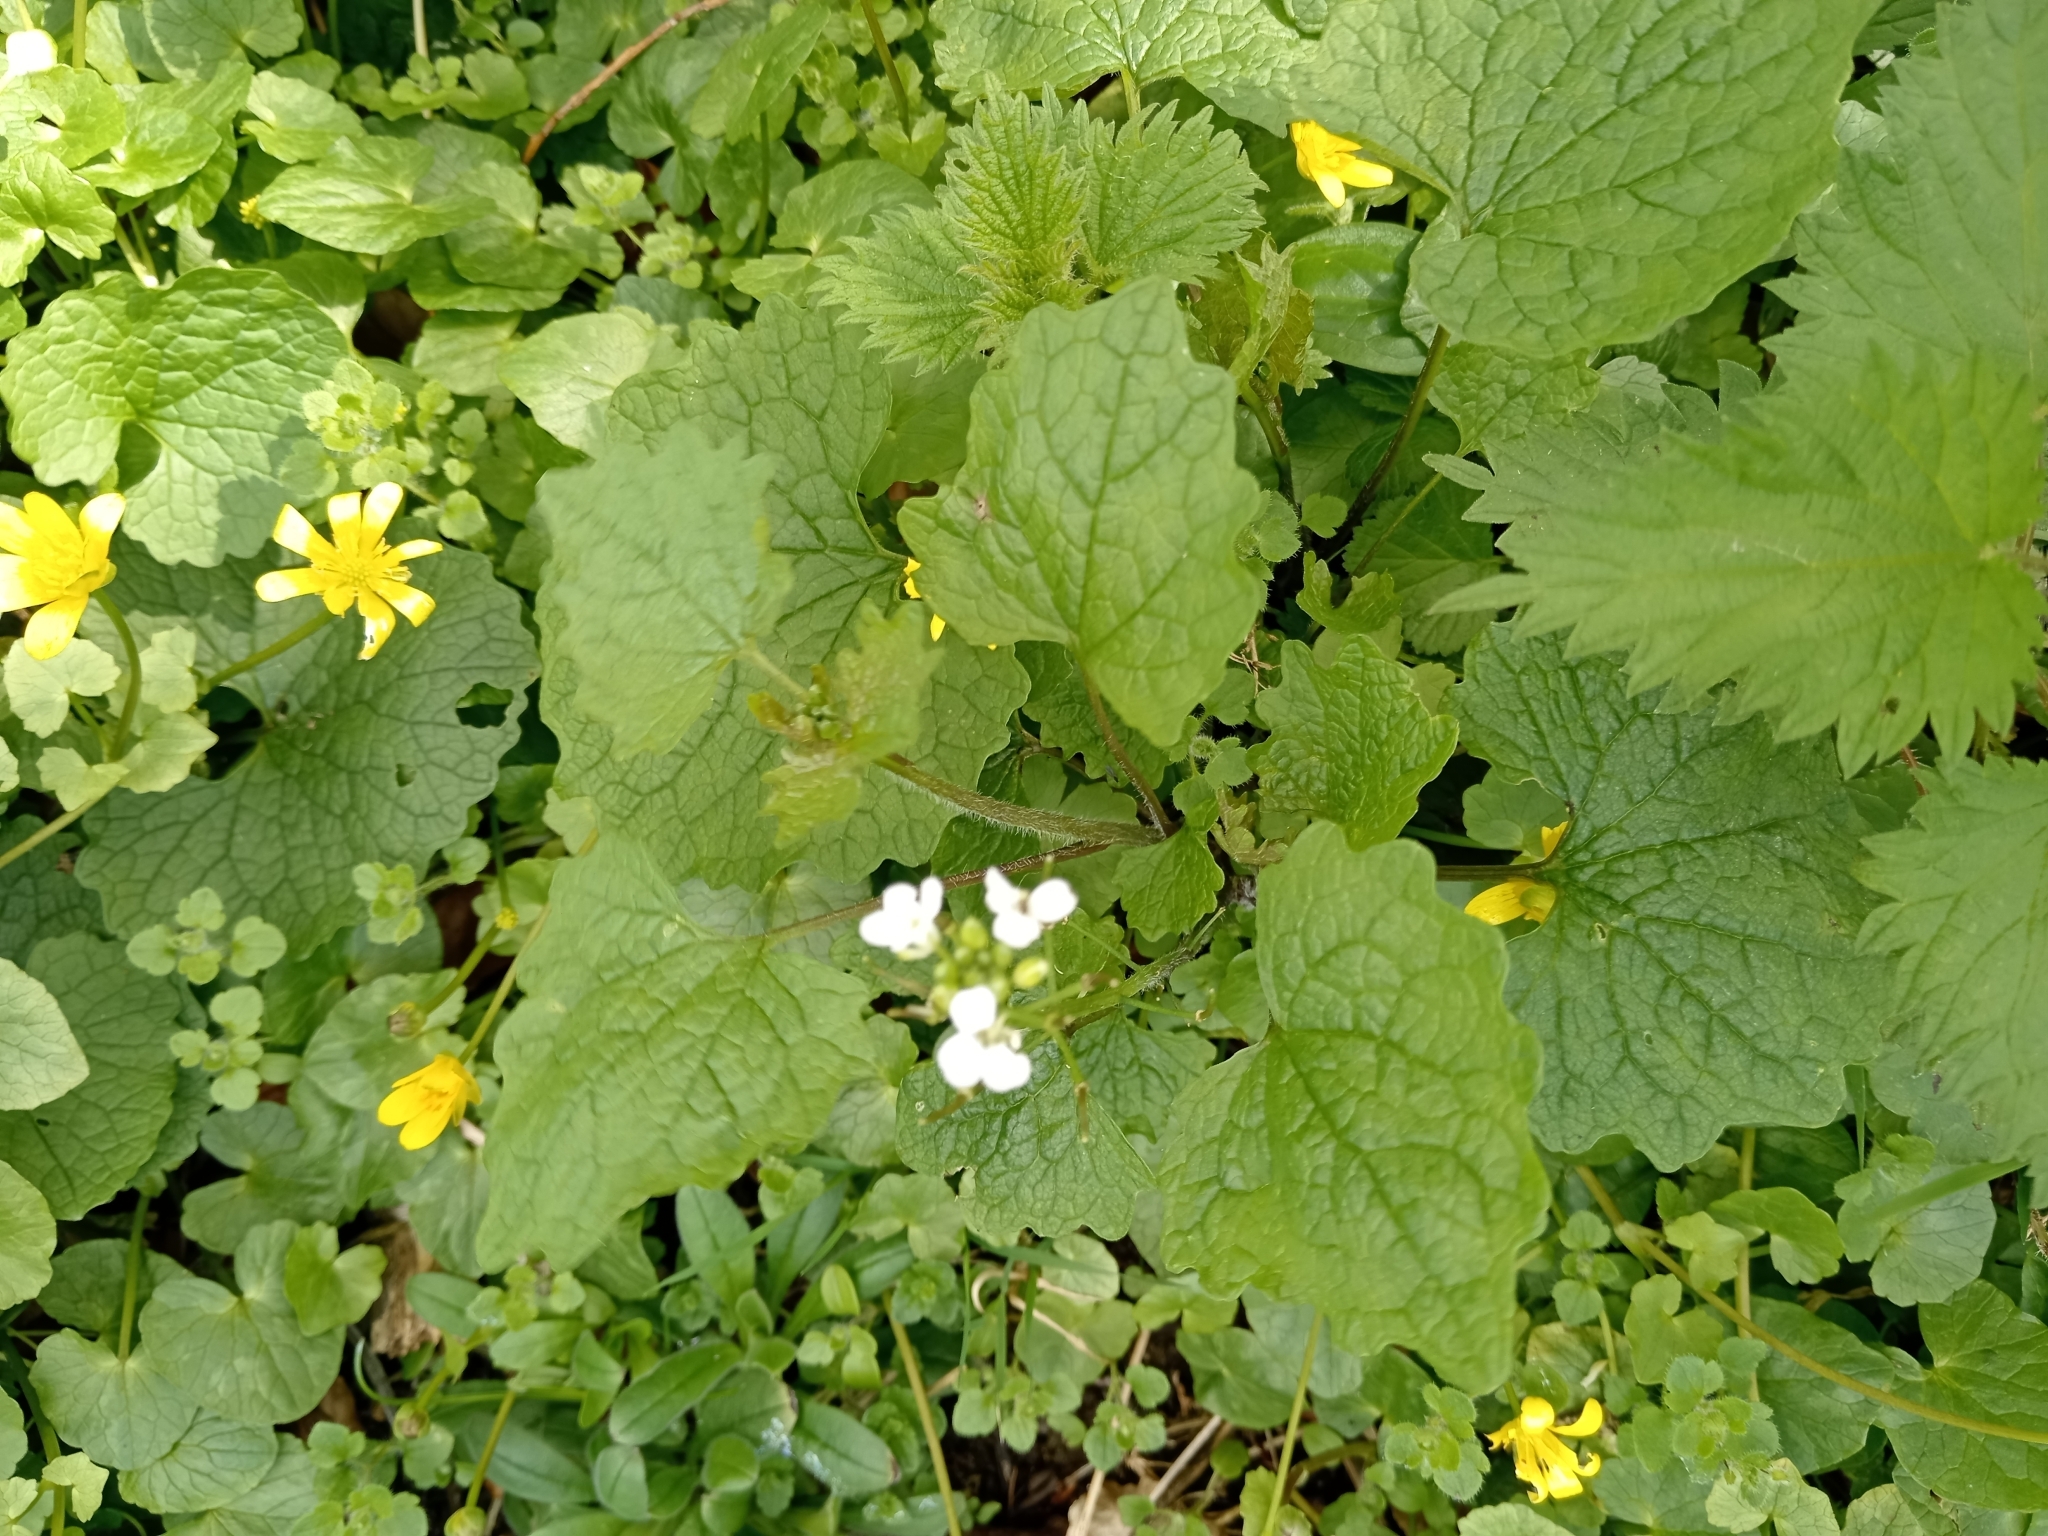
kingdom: Plantae
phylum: Tracheophyta
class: Magnoliopsida
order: Brassicales
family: Brassicaceae
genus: Alliaria
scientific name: Alliaria petiolata
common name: Garlic mustard
